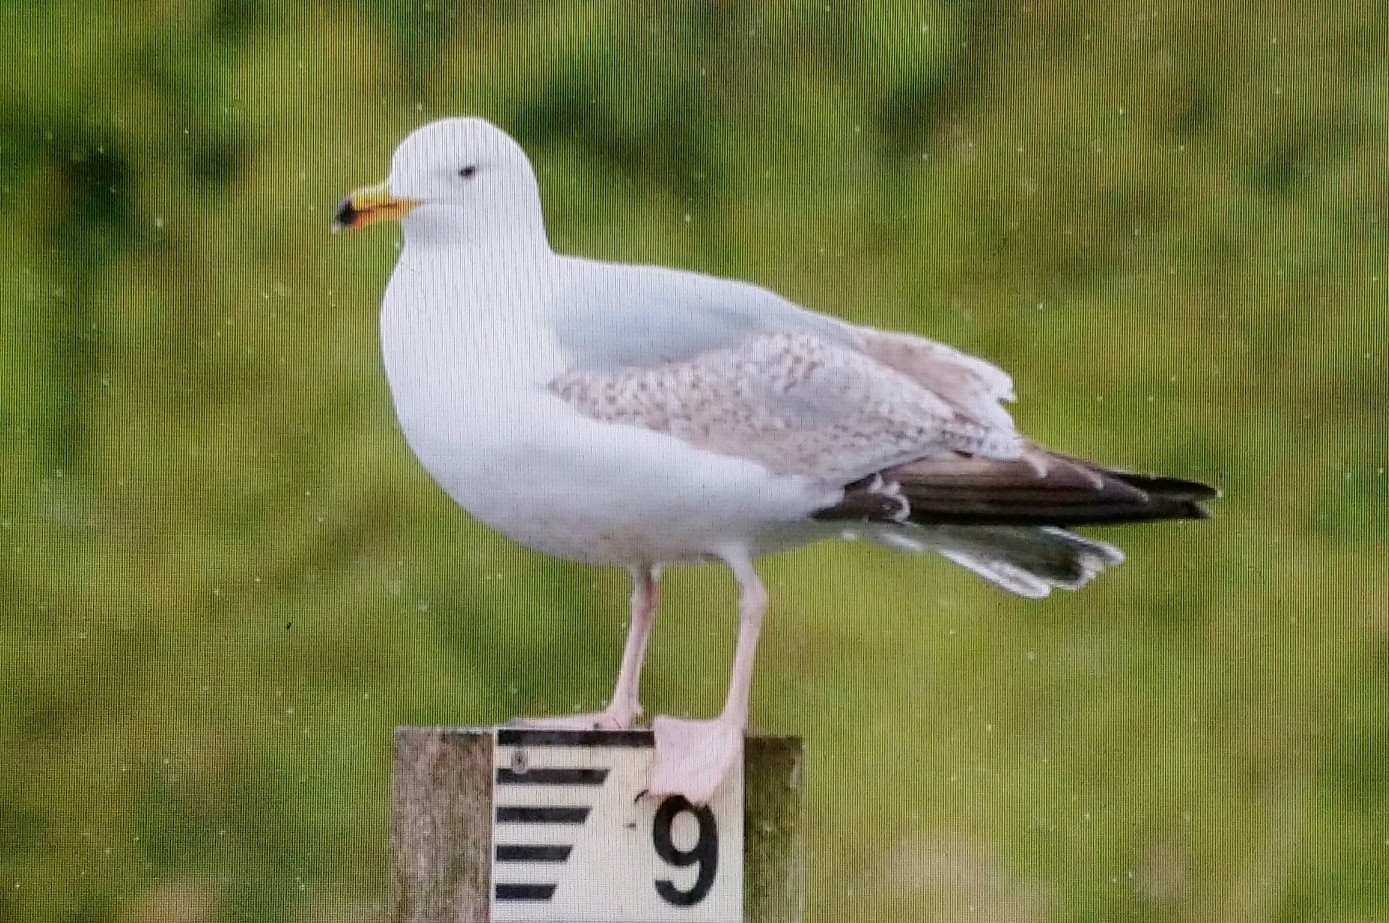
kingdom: Animalia
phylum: Chordata
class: Aves
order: Charadriiformes
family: Laridae
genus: Larus
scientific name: Larus argentatus
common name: Herring gull
